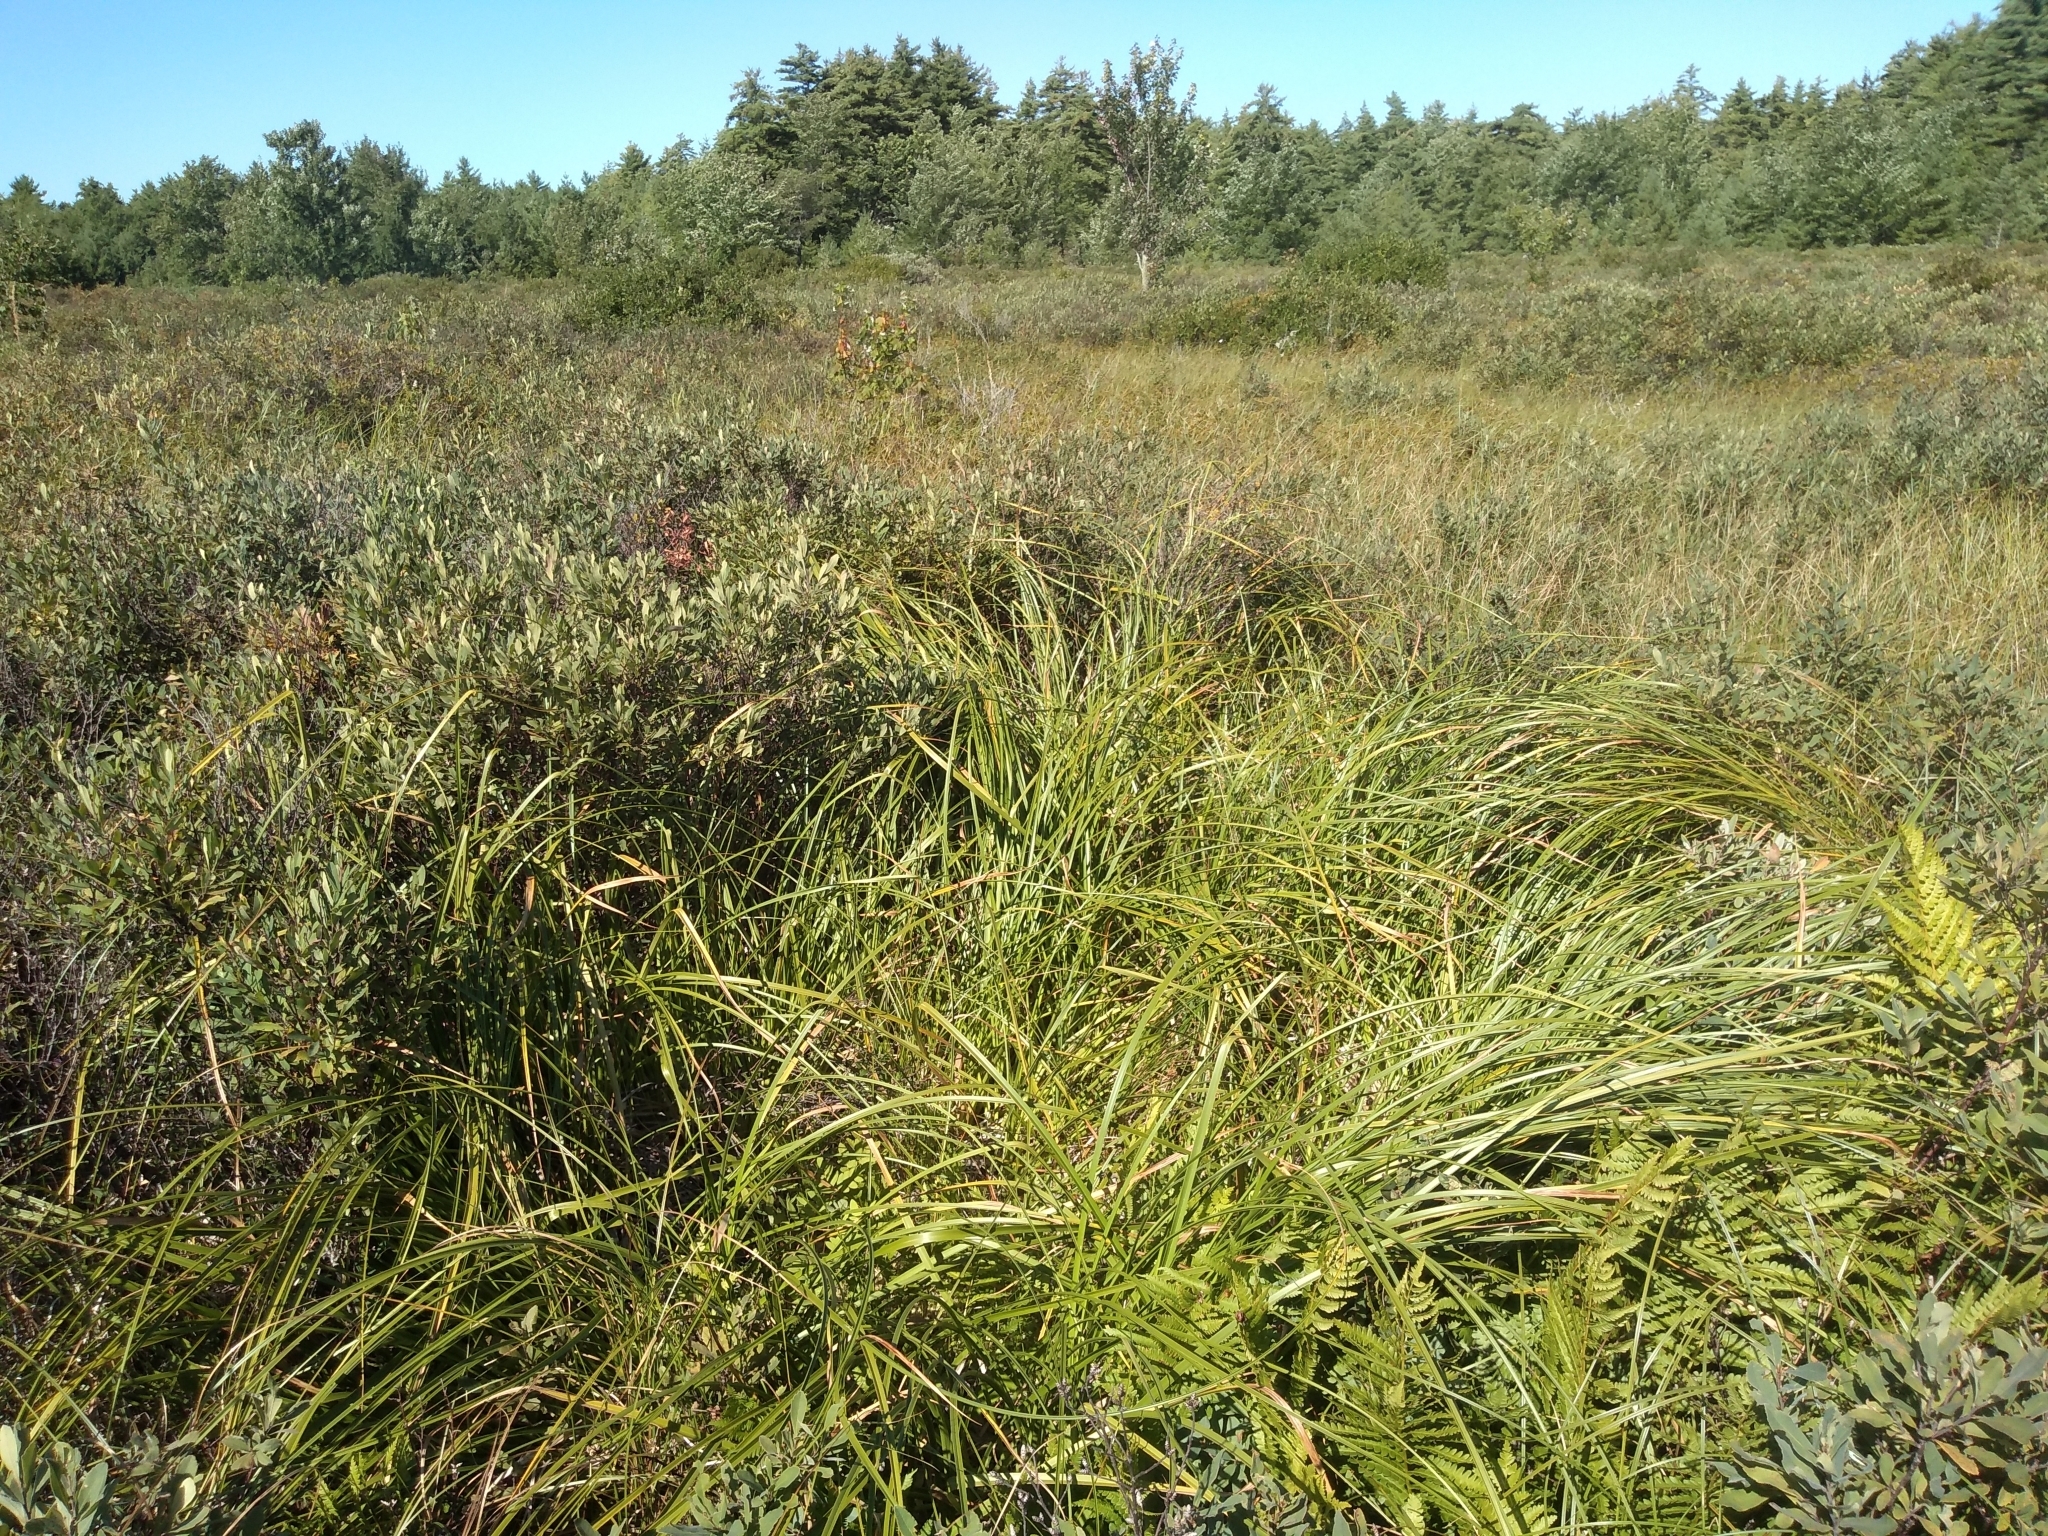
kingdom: Plantae
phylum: Tracheophyta
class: Liliopsida
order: Poales
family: Cyperaceae
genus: Scirpus
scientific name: Scirpus longii
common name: Long's bulrush
